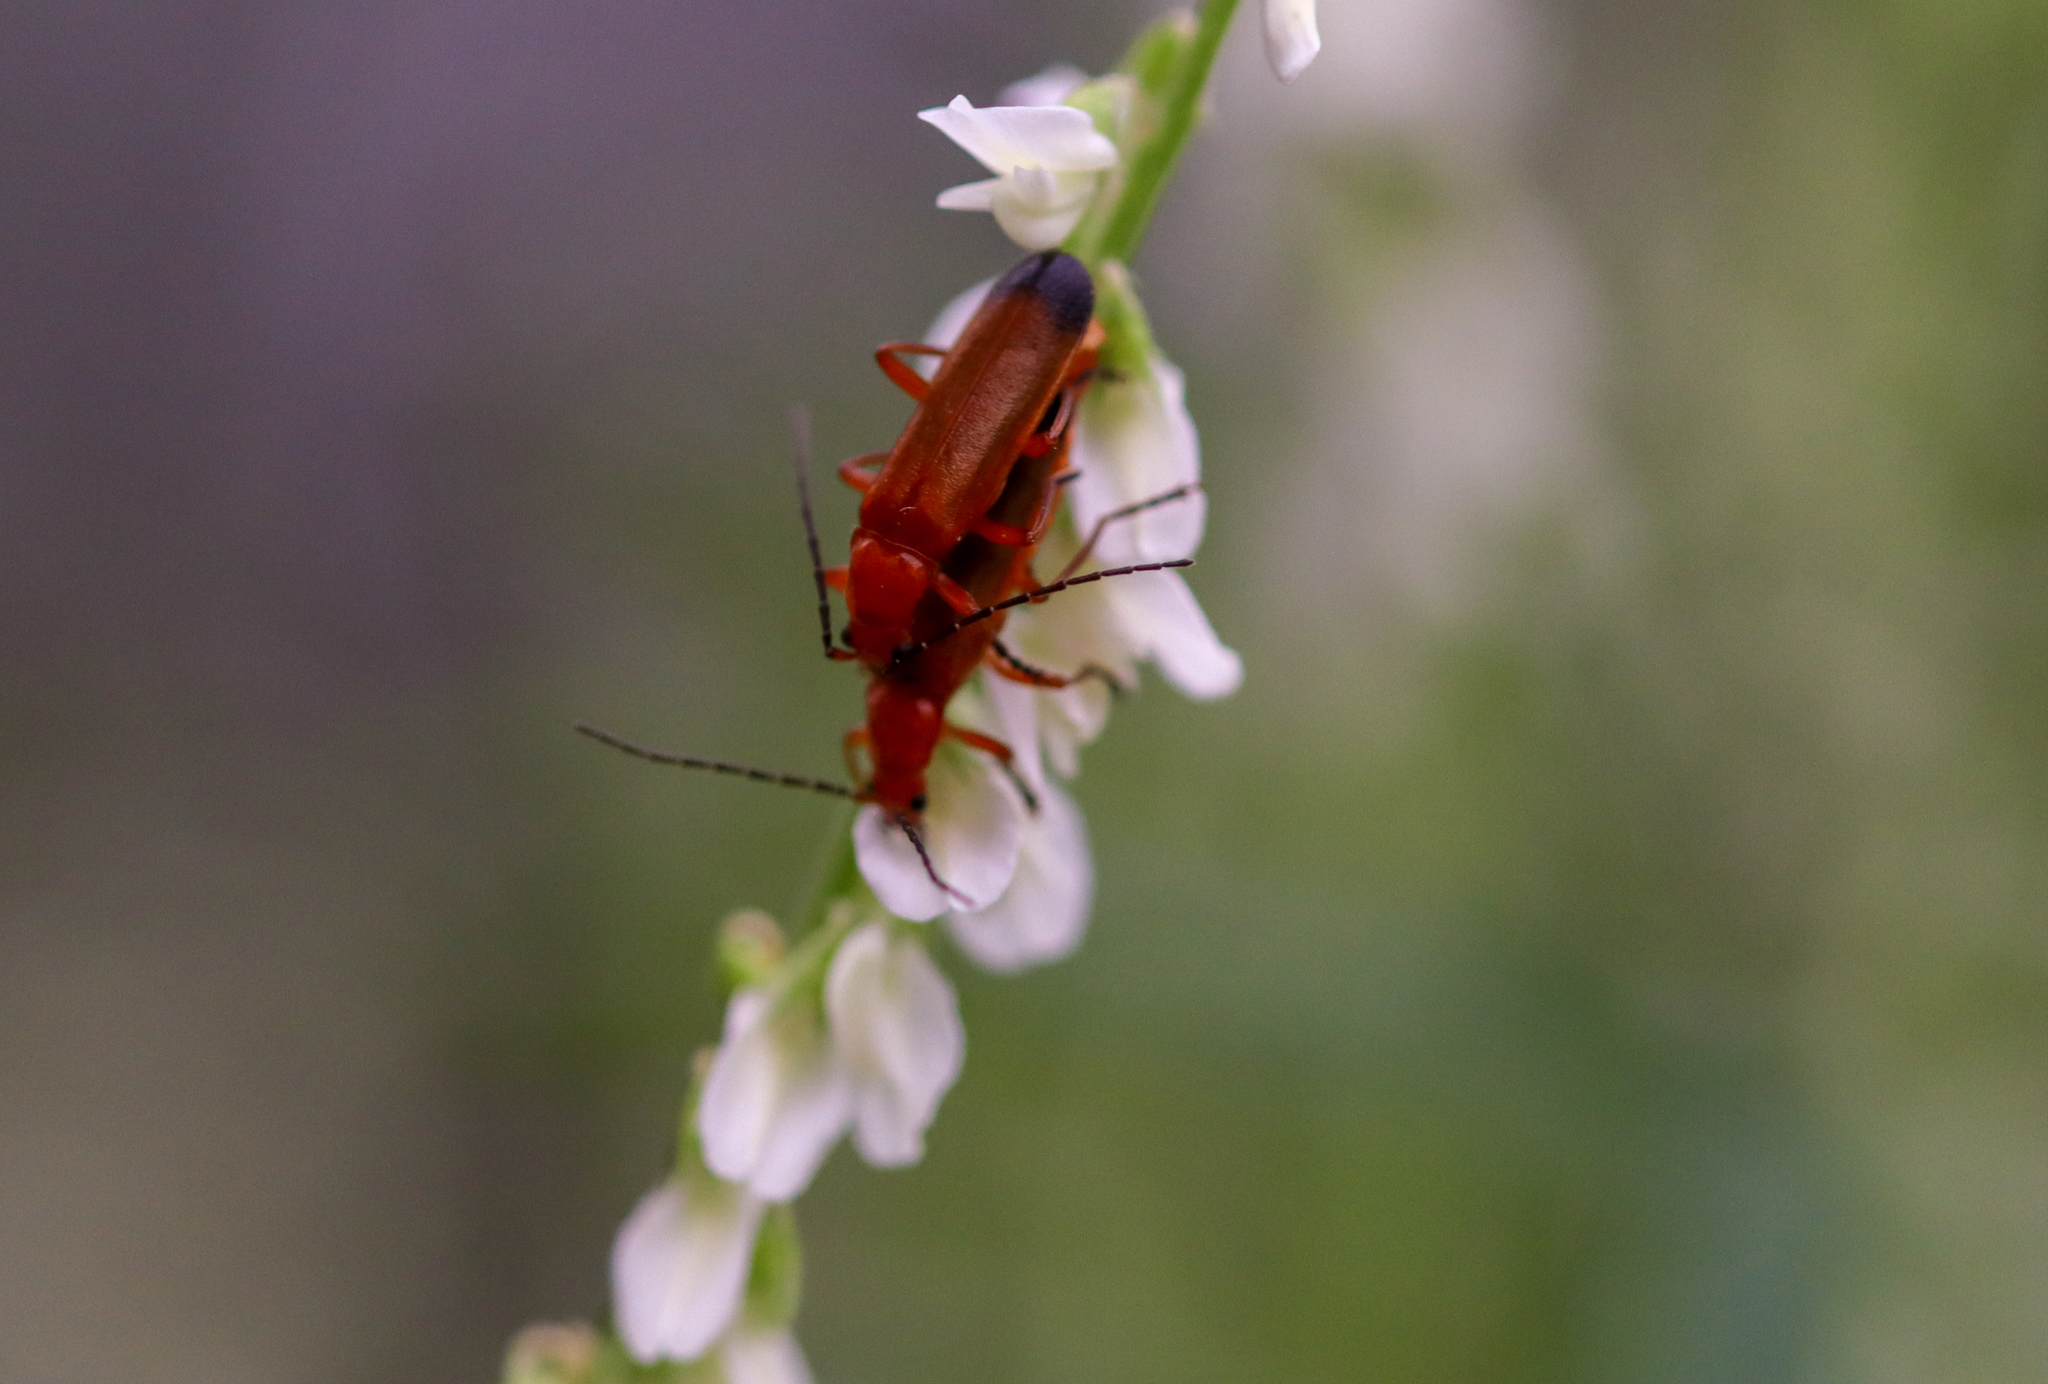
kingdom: Animalia
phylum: Arthropoda
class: Insecta
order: Coleoptera
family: Cantharidae
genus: Rhagonycha
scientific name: Rhagonycha fulva
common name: Common red soldier beetle
